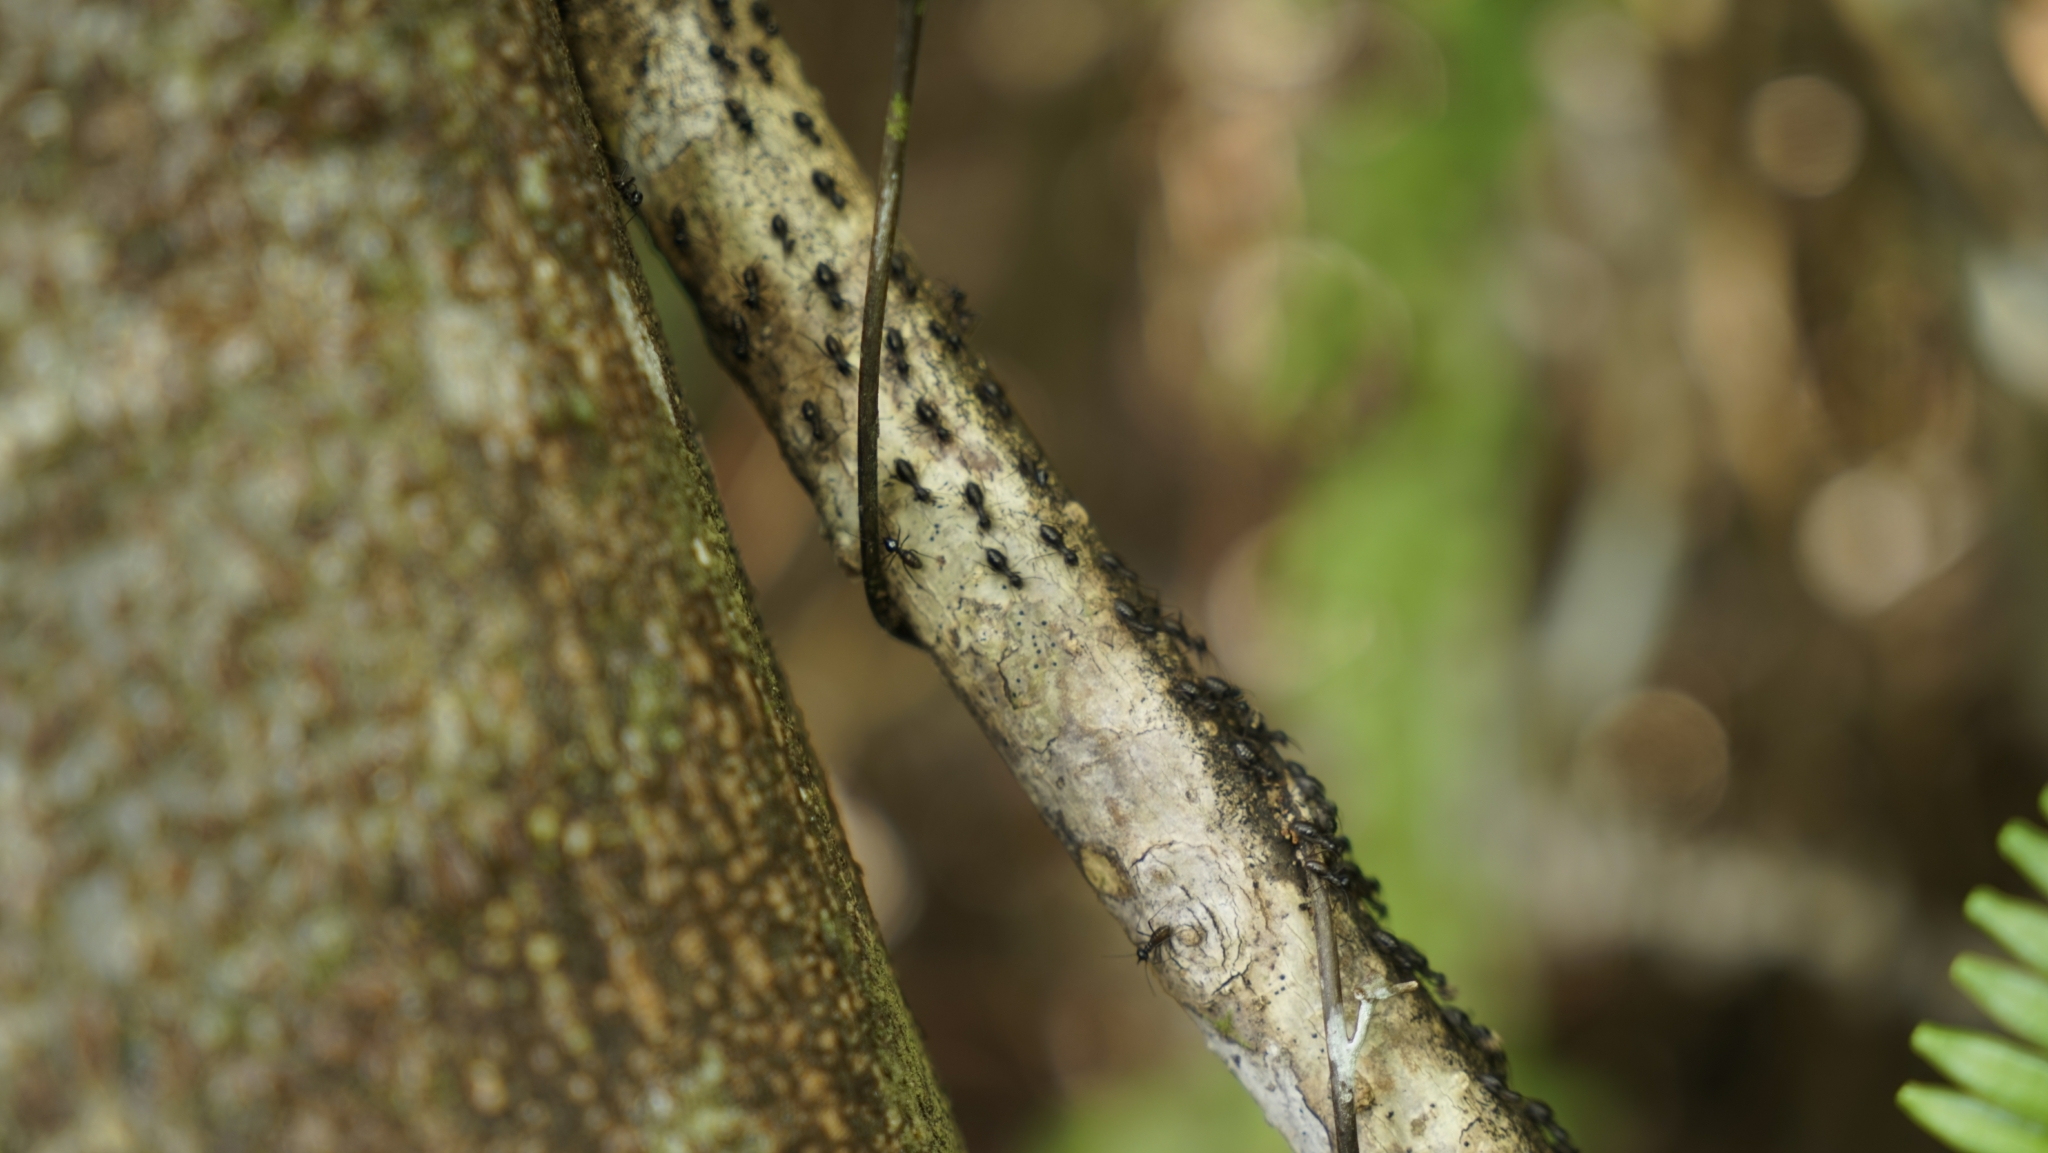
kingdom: Animalia
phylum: Arthropoda
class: Insecta
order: Blattodea
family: Termitidae
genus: Hospitalitermes
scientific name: Hospitalitermes
